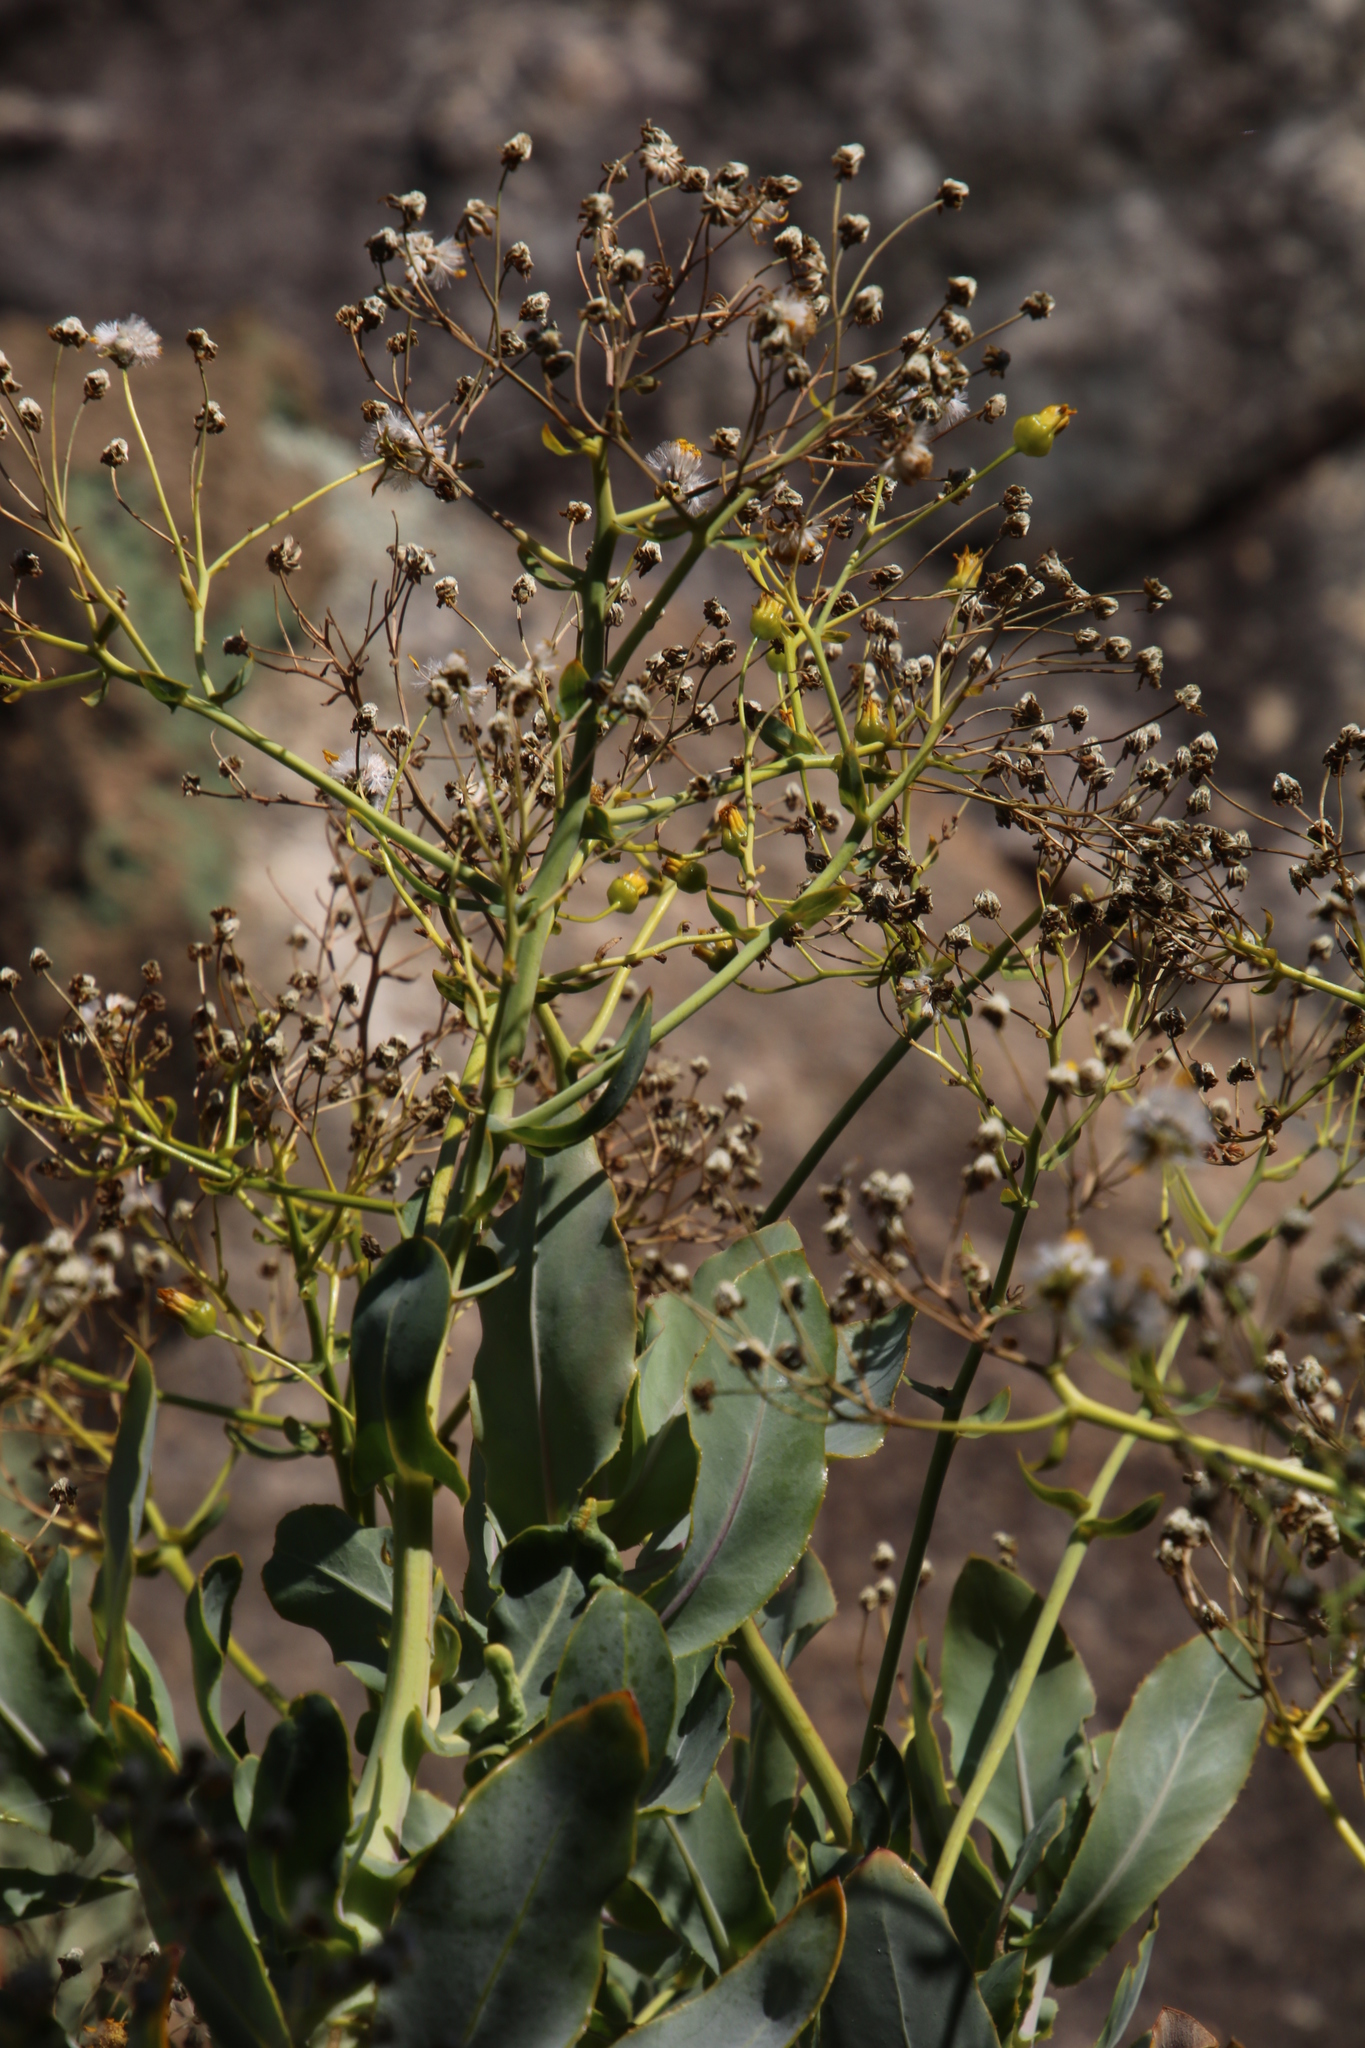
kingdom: Plantae
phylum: Tracheophyta
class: Magnoliopsida
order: Asterales
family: Asteraceae
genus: Othonna
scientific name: Othonna parviflora
